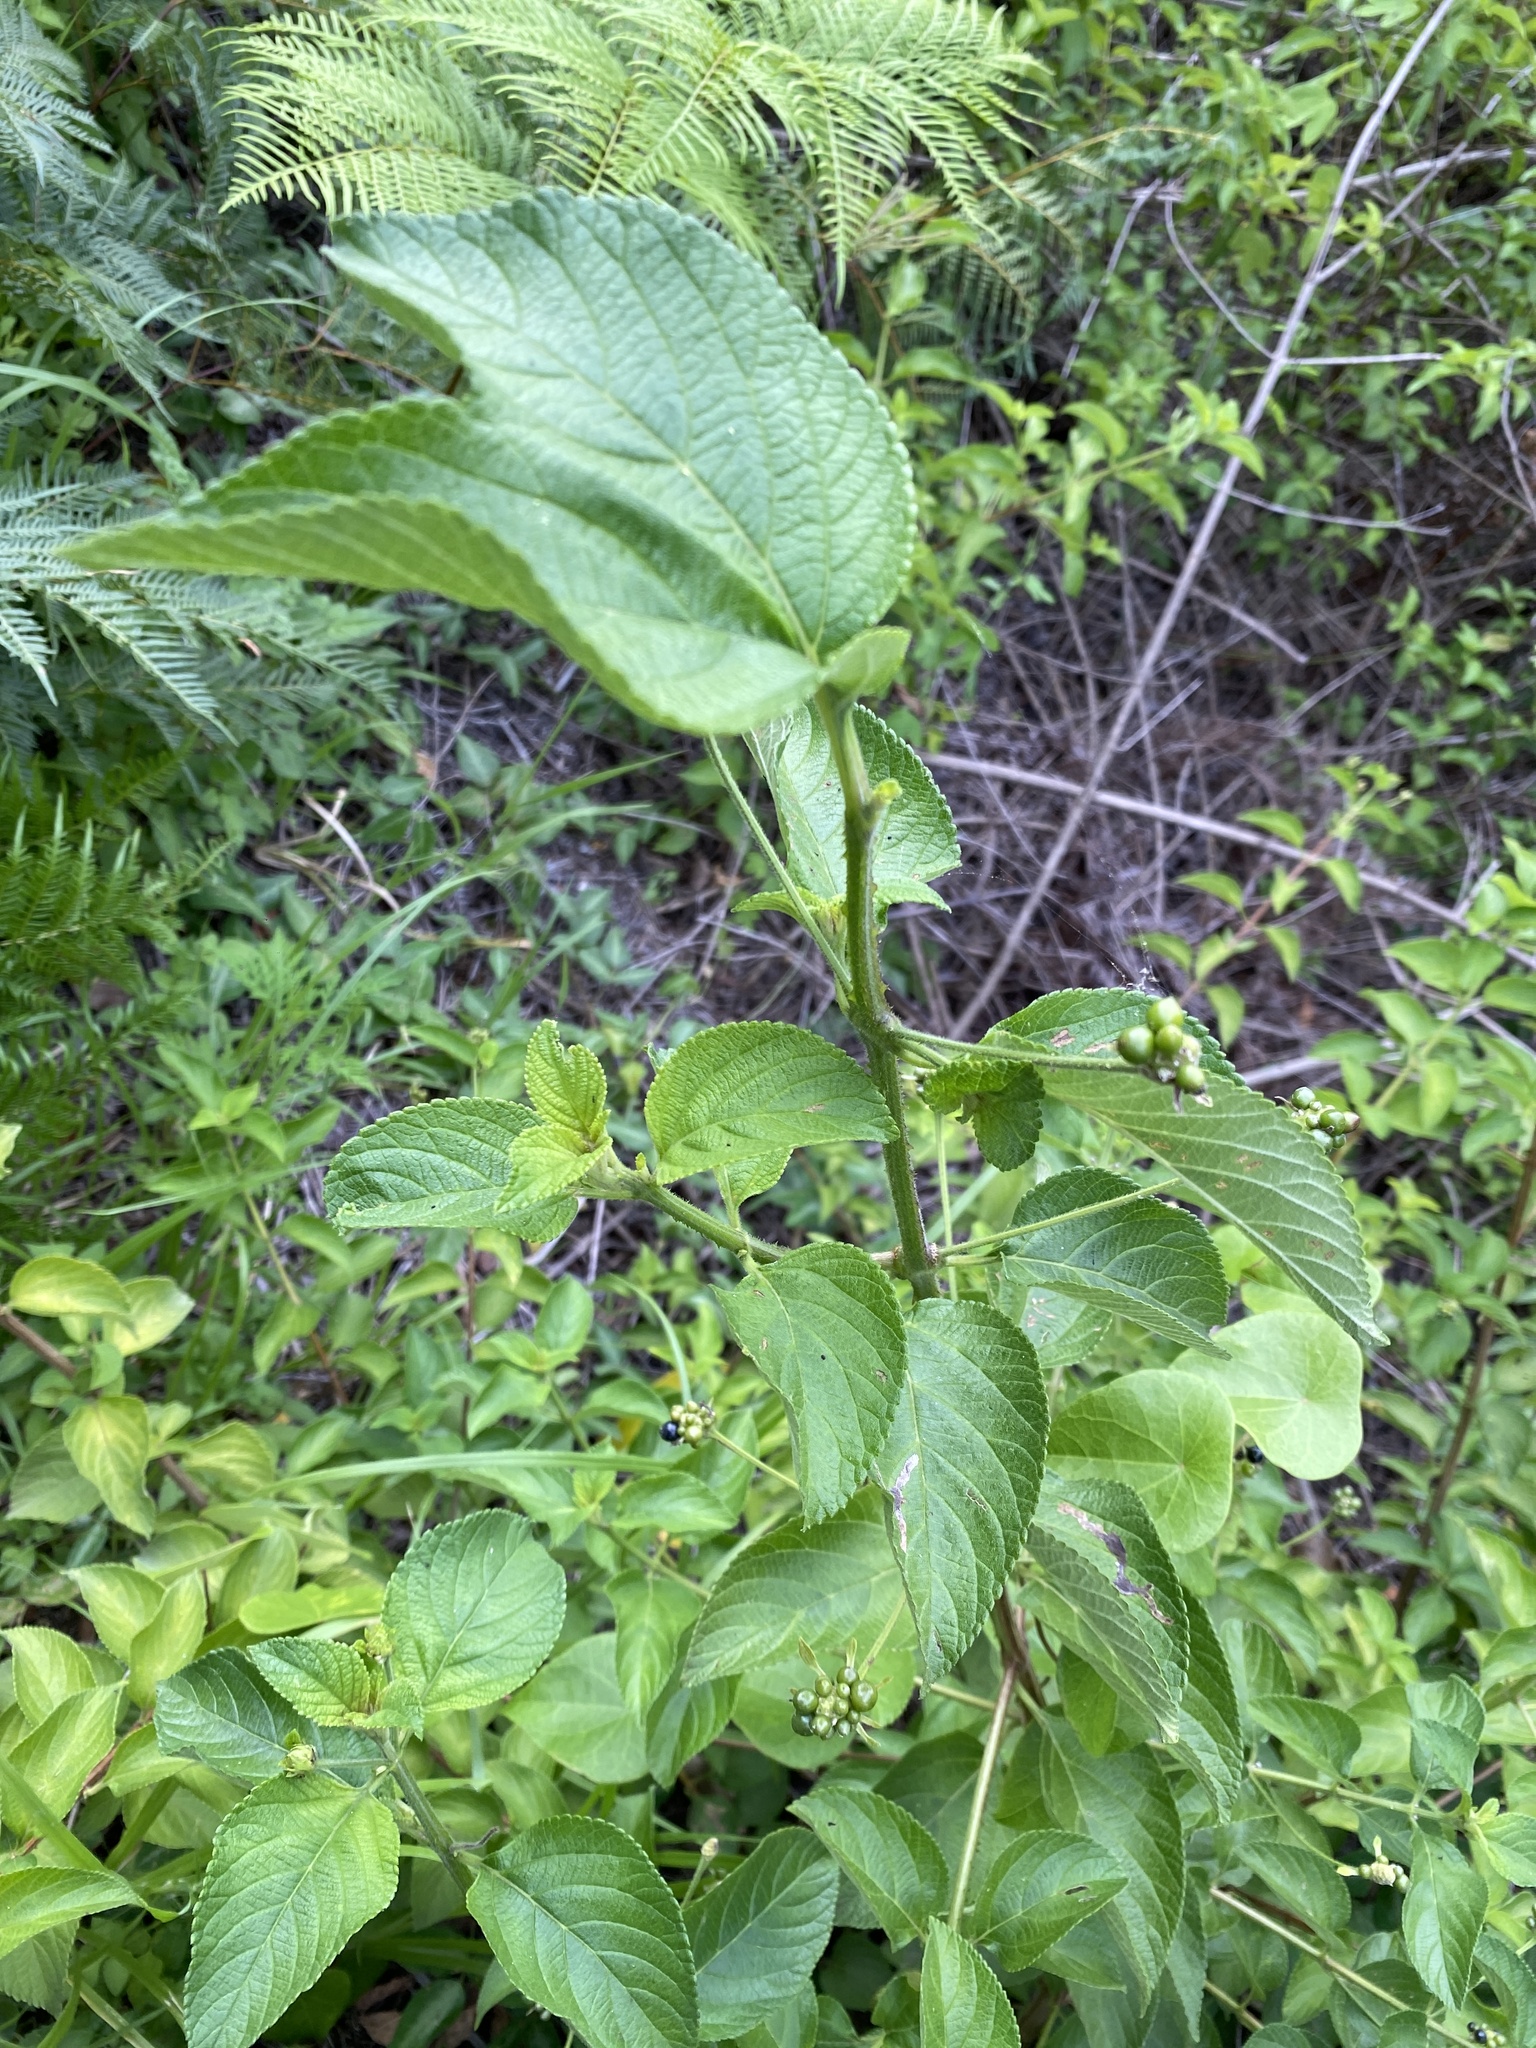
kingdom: Plantae
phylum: Tracheophyta
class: Magnoliopsida
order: Lamiales
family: Verbenaceae
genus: Lantana
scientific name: Lantana camara
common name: Lantana
